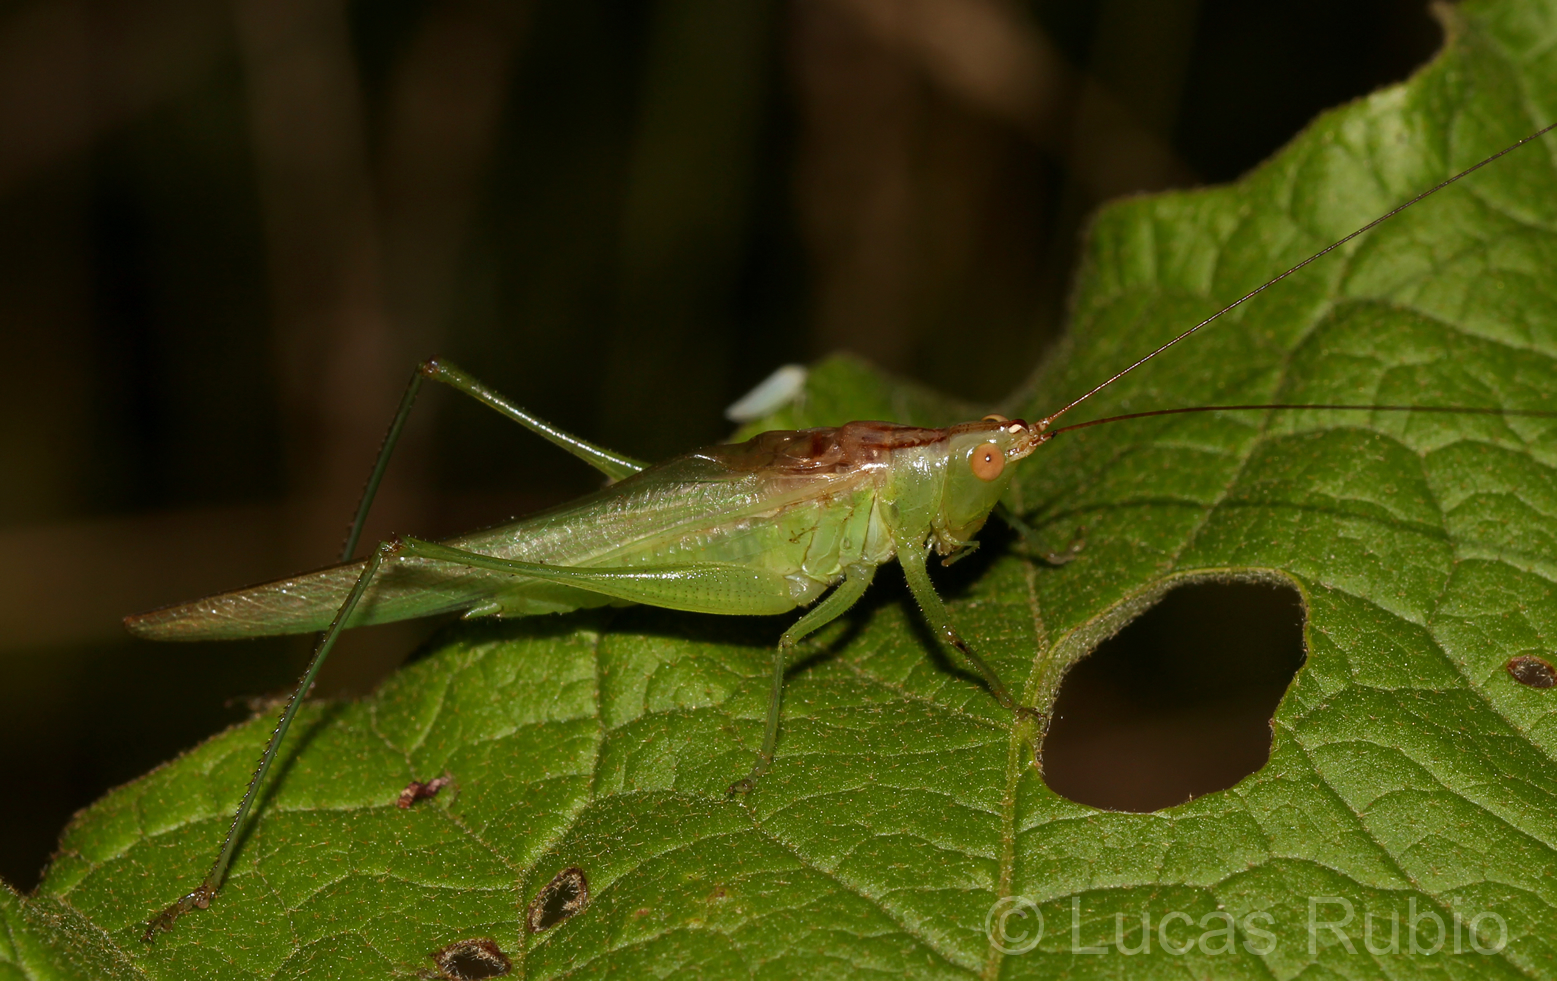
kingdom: Animalia
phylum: Arthropoda
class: Insecta
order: Orthoptera
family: Tettigoniidae
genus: Conocephalus
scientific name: Conocephalus longipes
